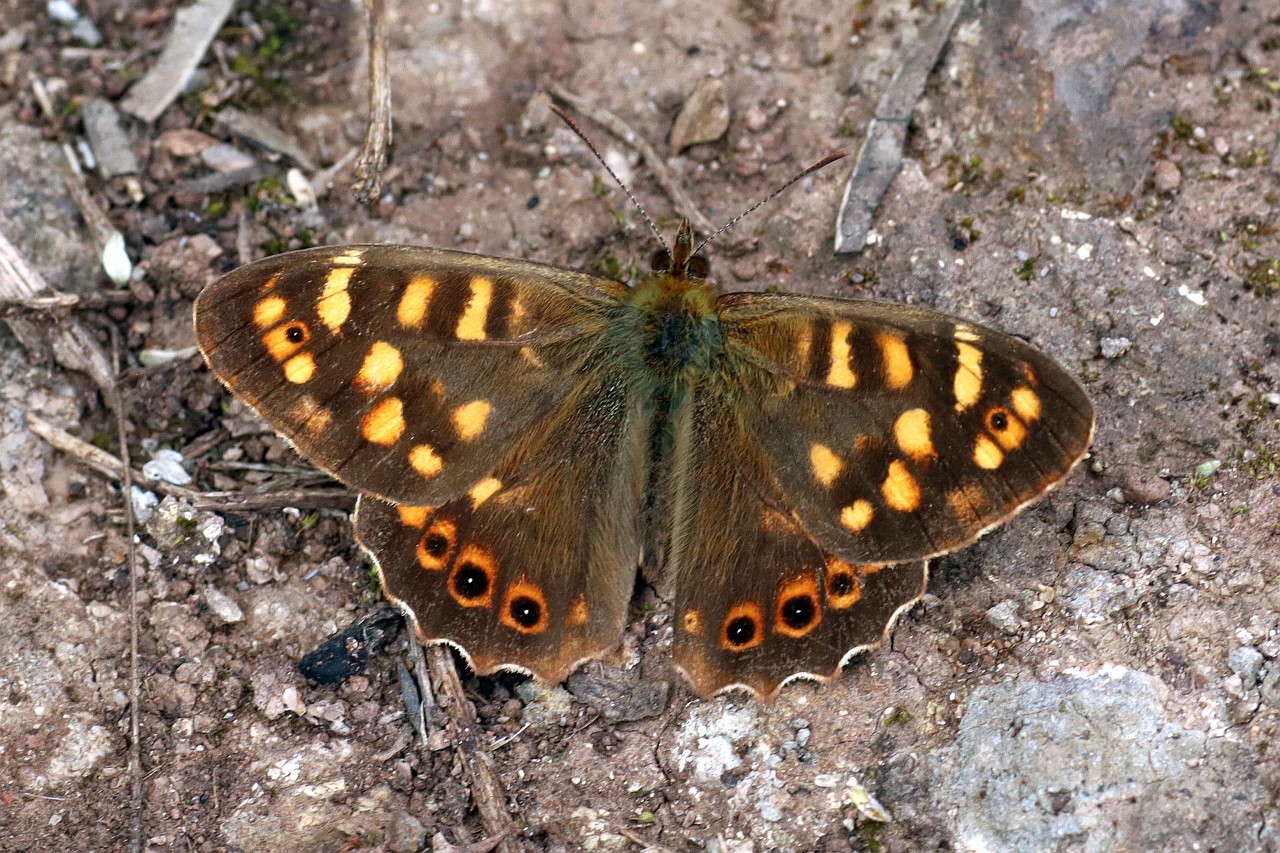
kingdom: Animalia
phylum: Arthropoda
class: Insecta
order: Lepidoptera
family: Nymphalidae
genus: Pararge
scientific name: Pararge aegeria
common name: Speckled wood
